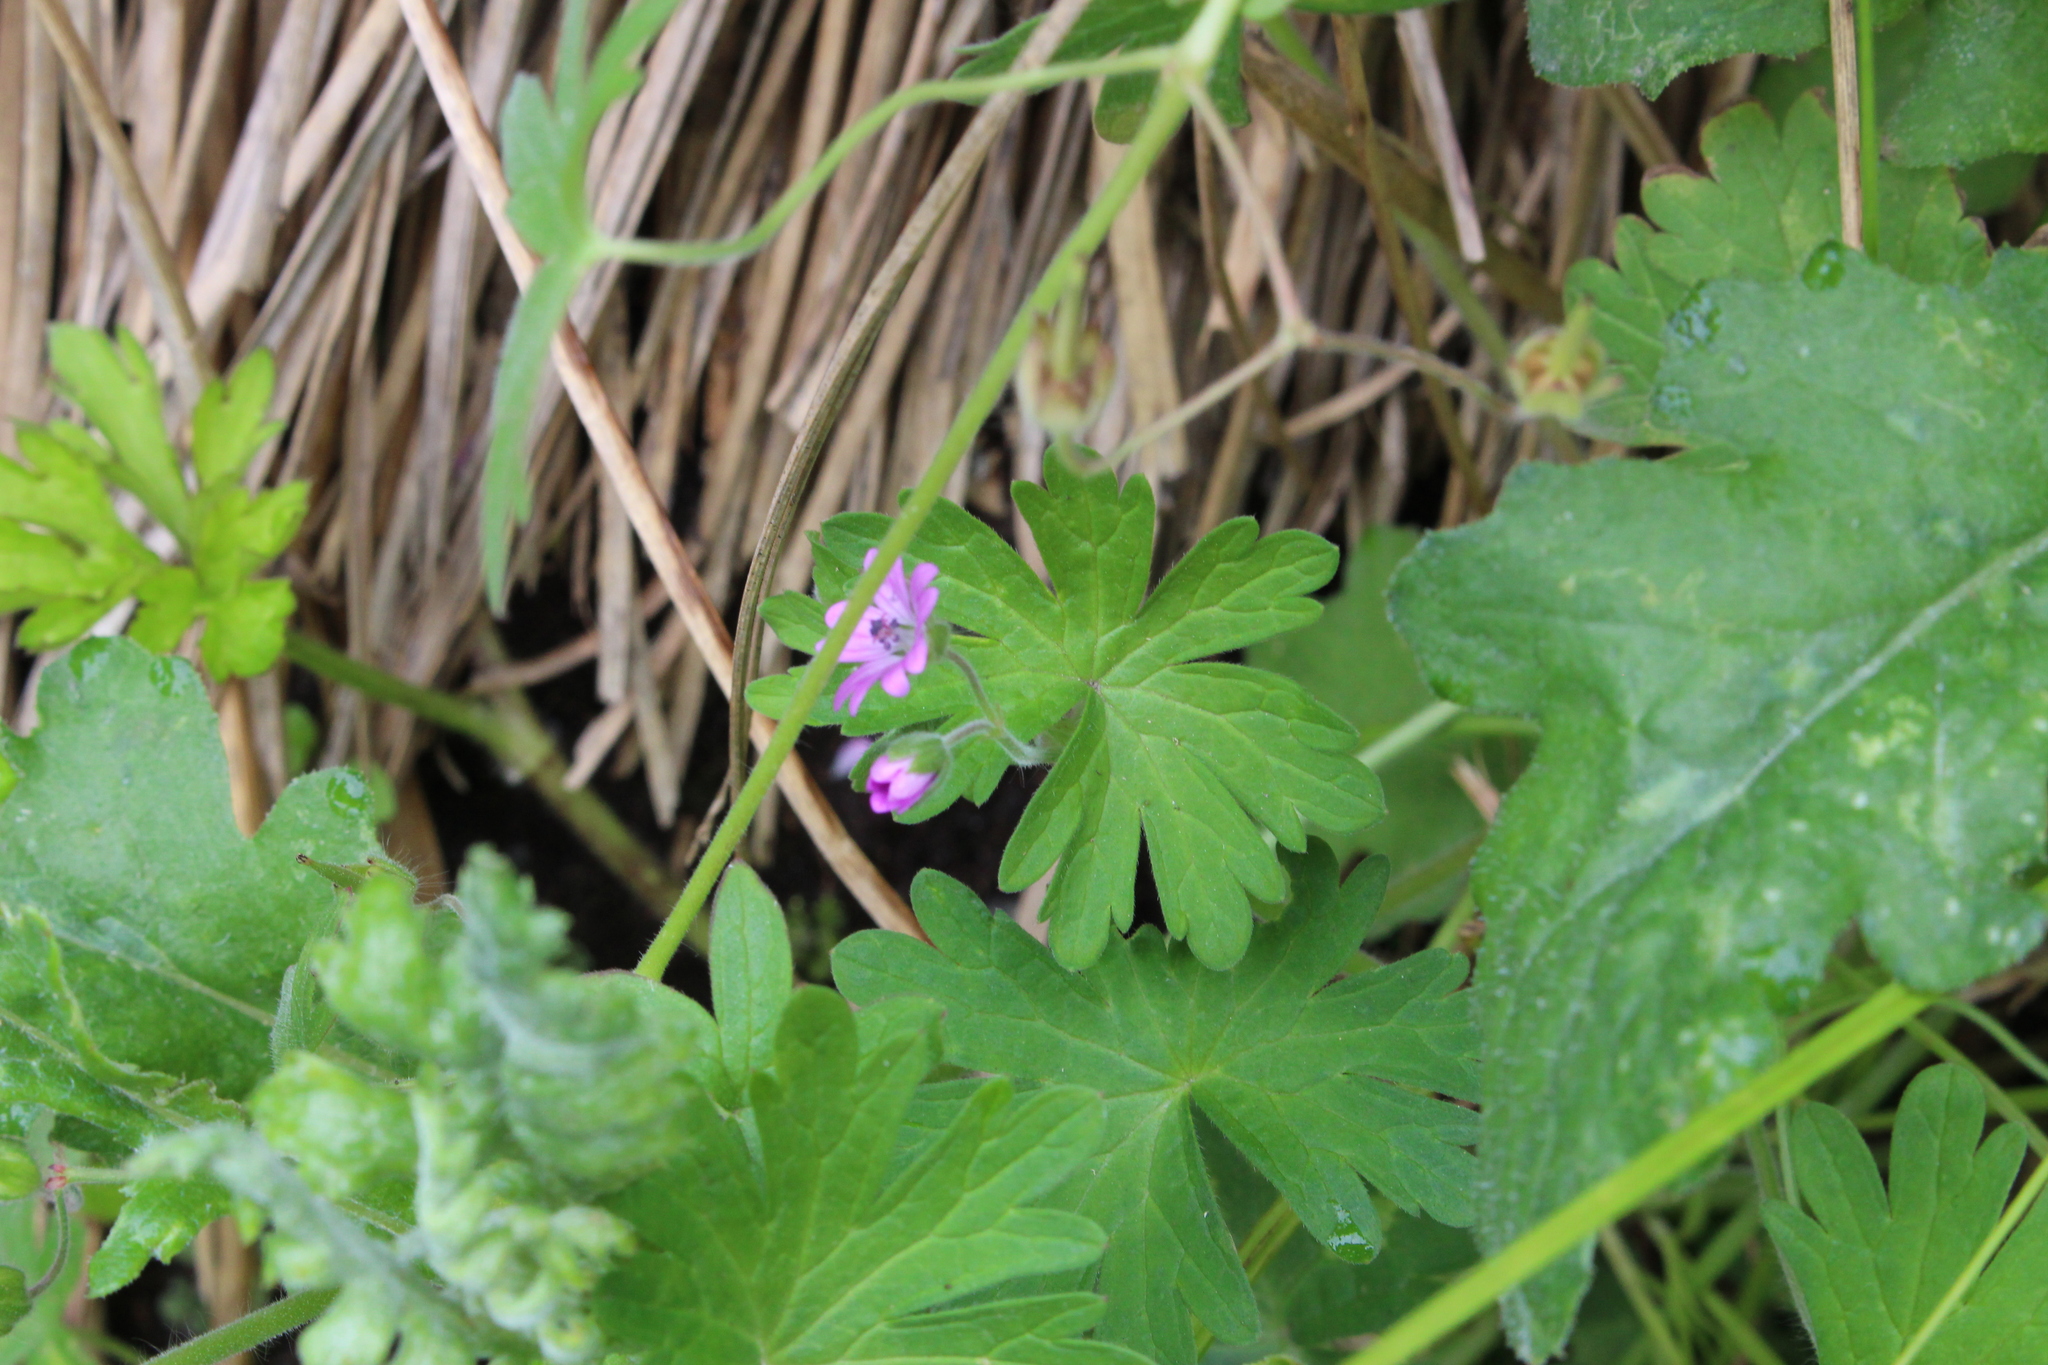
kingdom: Plantae
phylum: Tracheophyta
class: Magnoliopsida
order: Geraniales
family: Geraniaceae
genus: Geranium
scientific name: Geranium molle
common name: Dove's-foot crane's-bill
